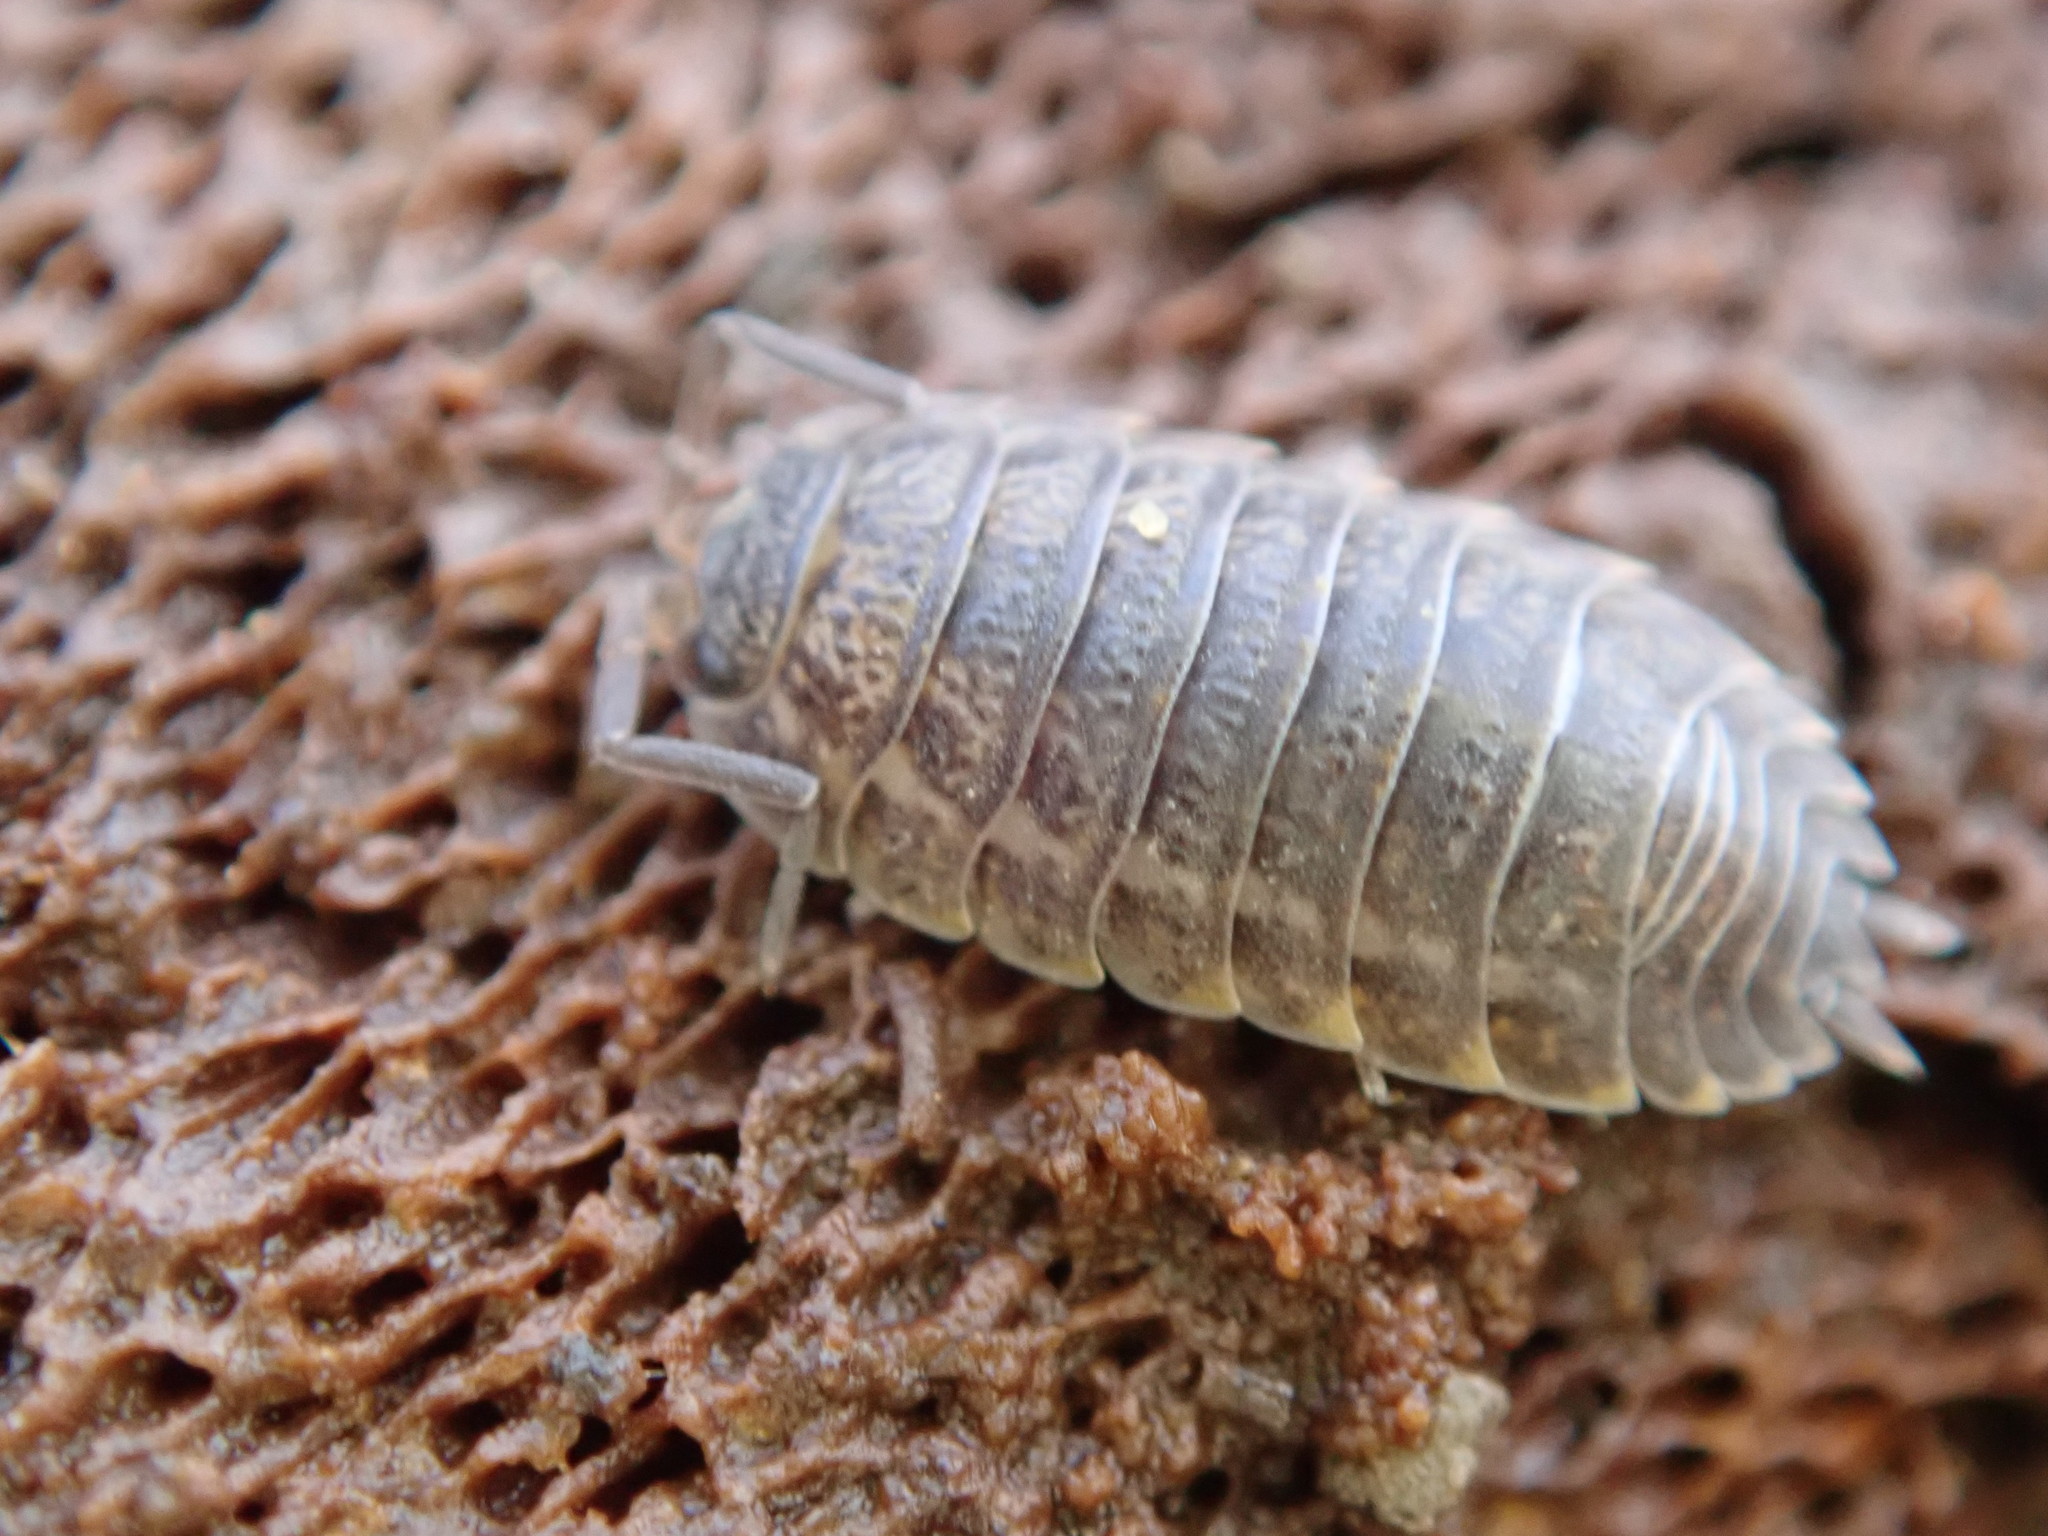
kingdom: Animalia
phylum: Arthropoda
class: Malacostraca
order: Isopoda
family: Trachelipodidae
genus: Trachelipus
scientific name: Trachelipus rathkii
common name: Isopod
